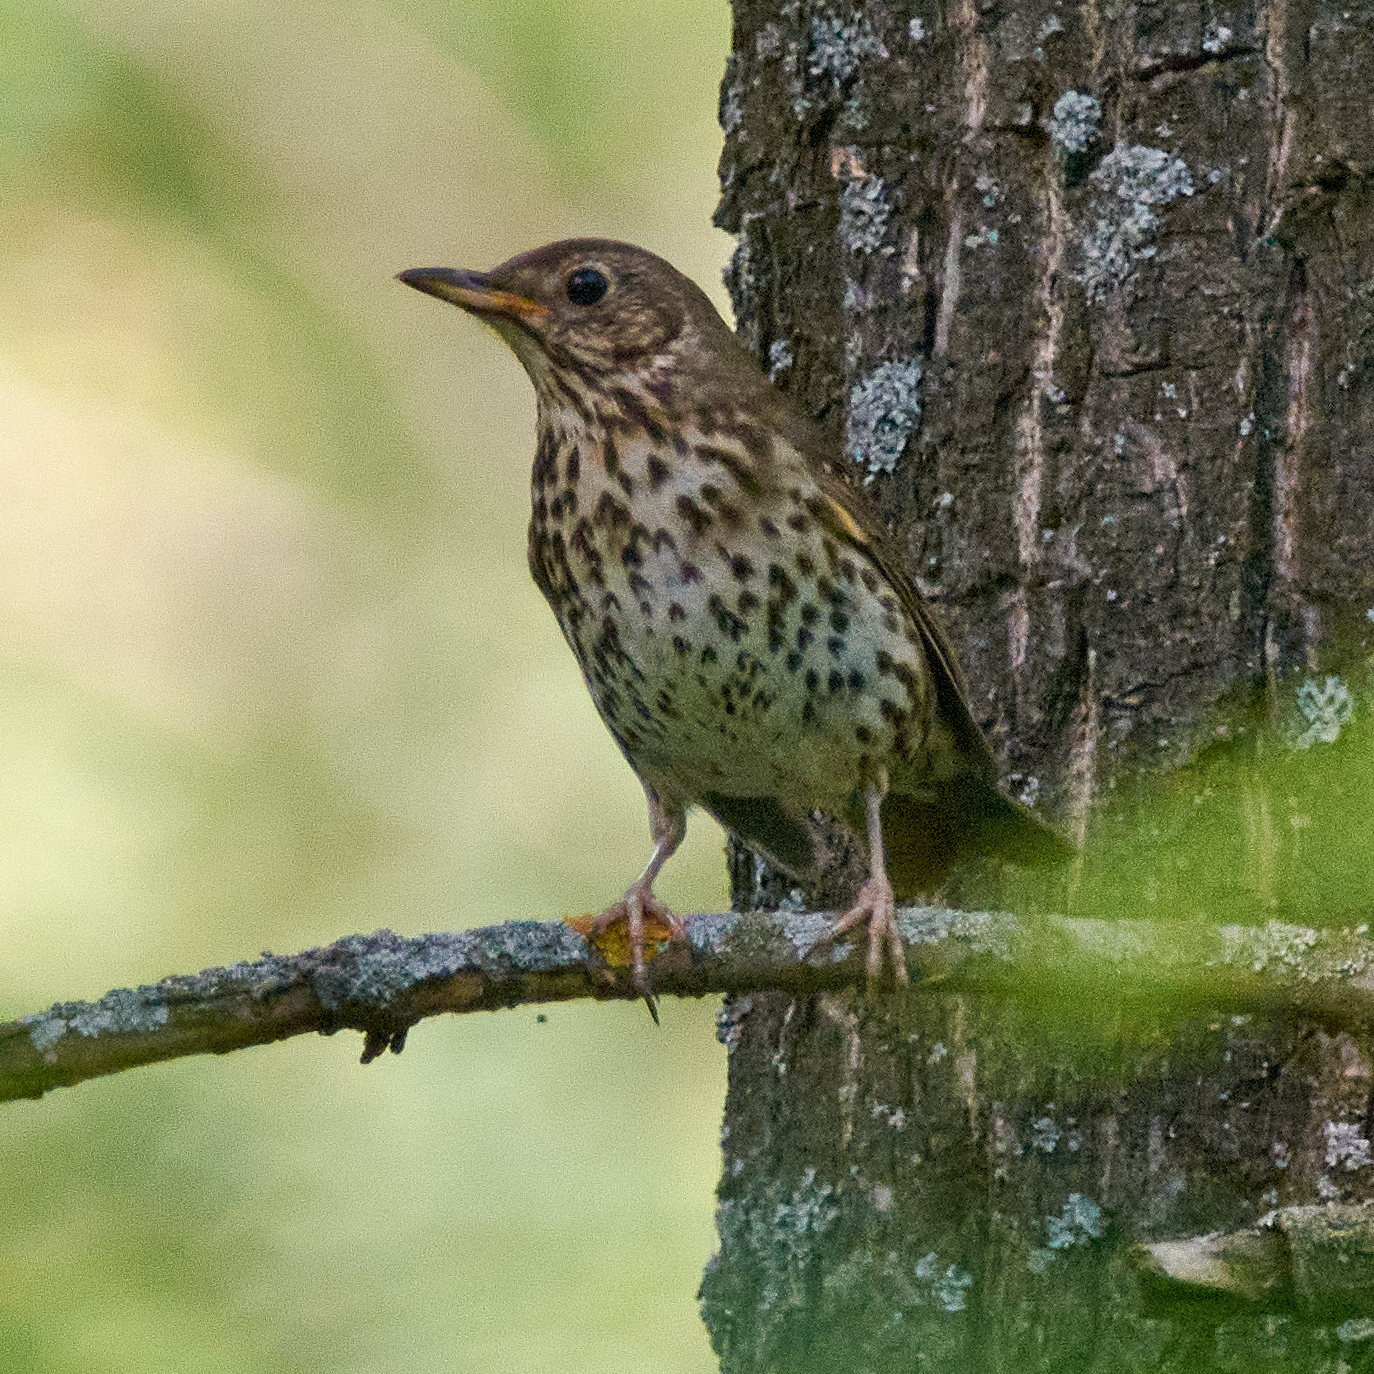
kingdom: Animalia
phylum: Chordata
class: Aves
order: Passeriformes
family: Turdidae
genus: Turdus
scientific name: Turdus philomelos
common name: Song thrush
